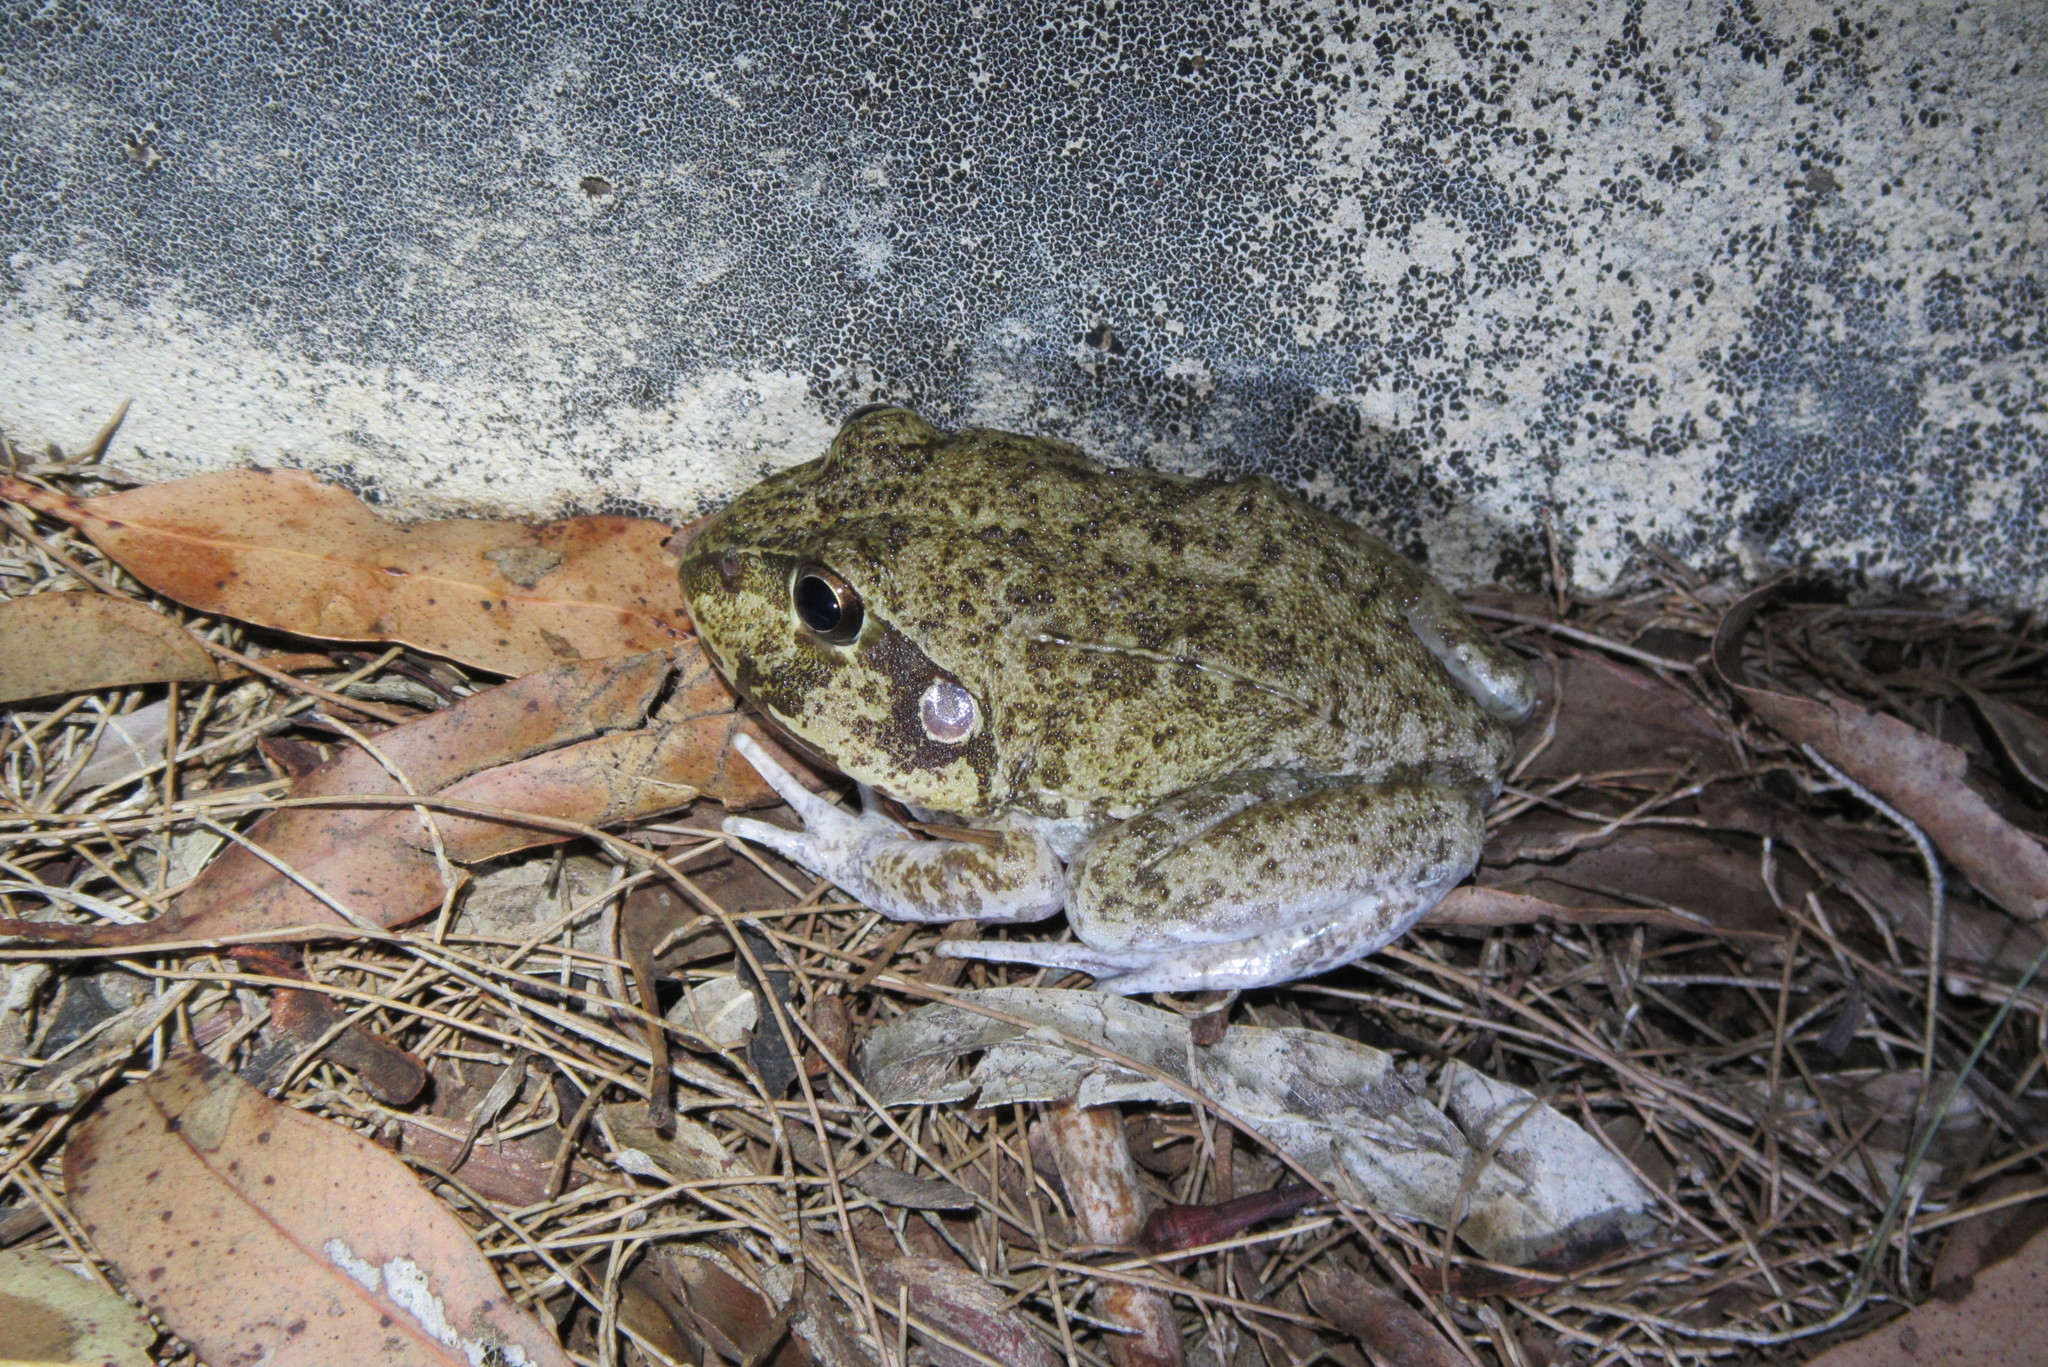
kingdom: Animalia
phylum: Chordata
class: Amphibia
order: Anura
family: Pelodryadidae
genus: Ranoidea
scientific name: Ranoidea novaehollandiae
